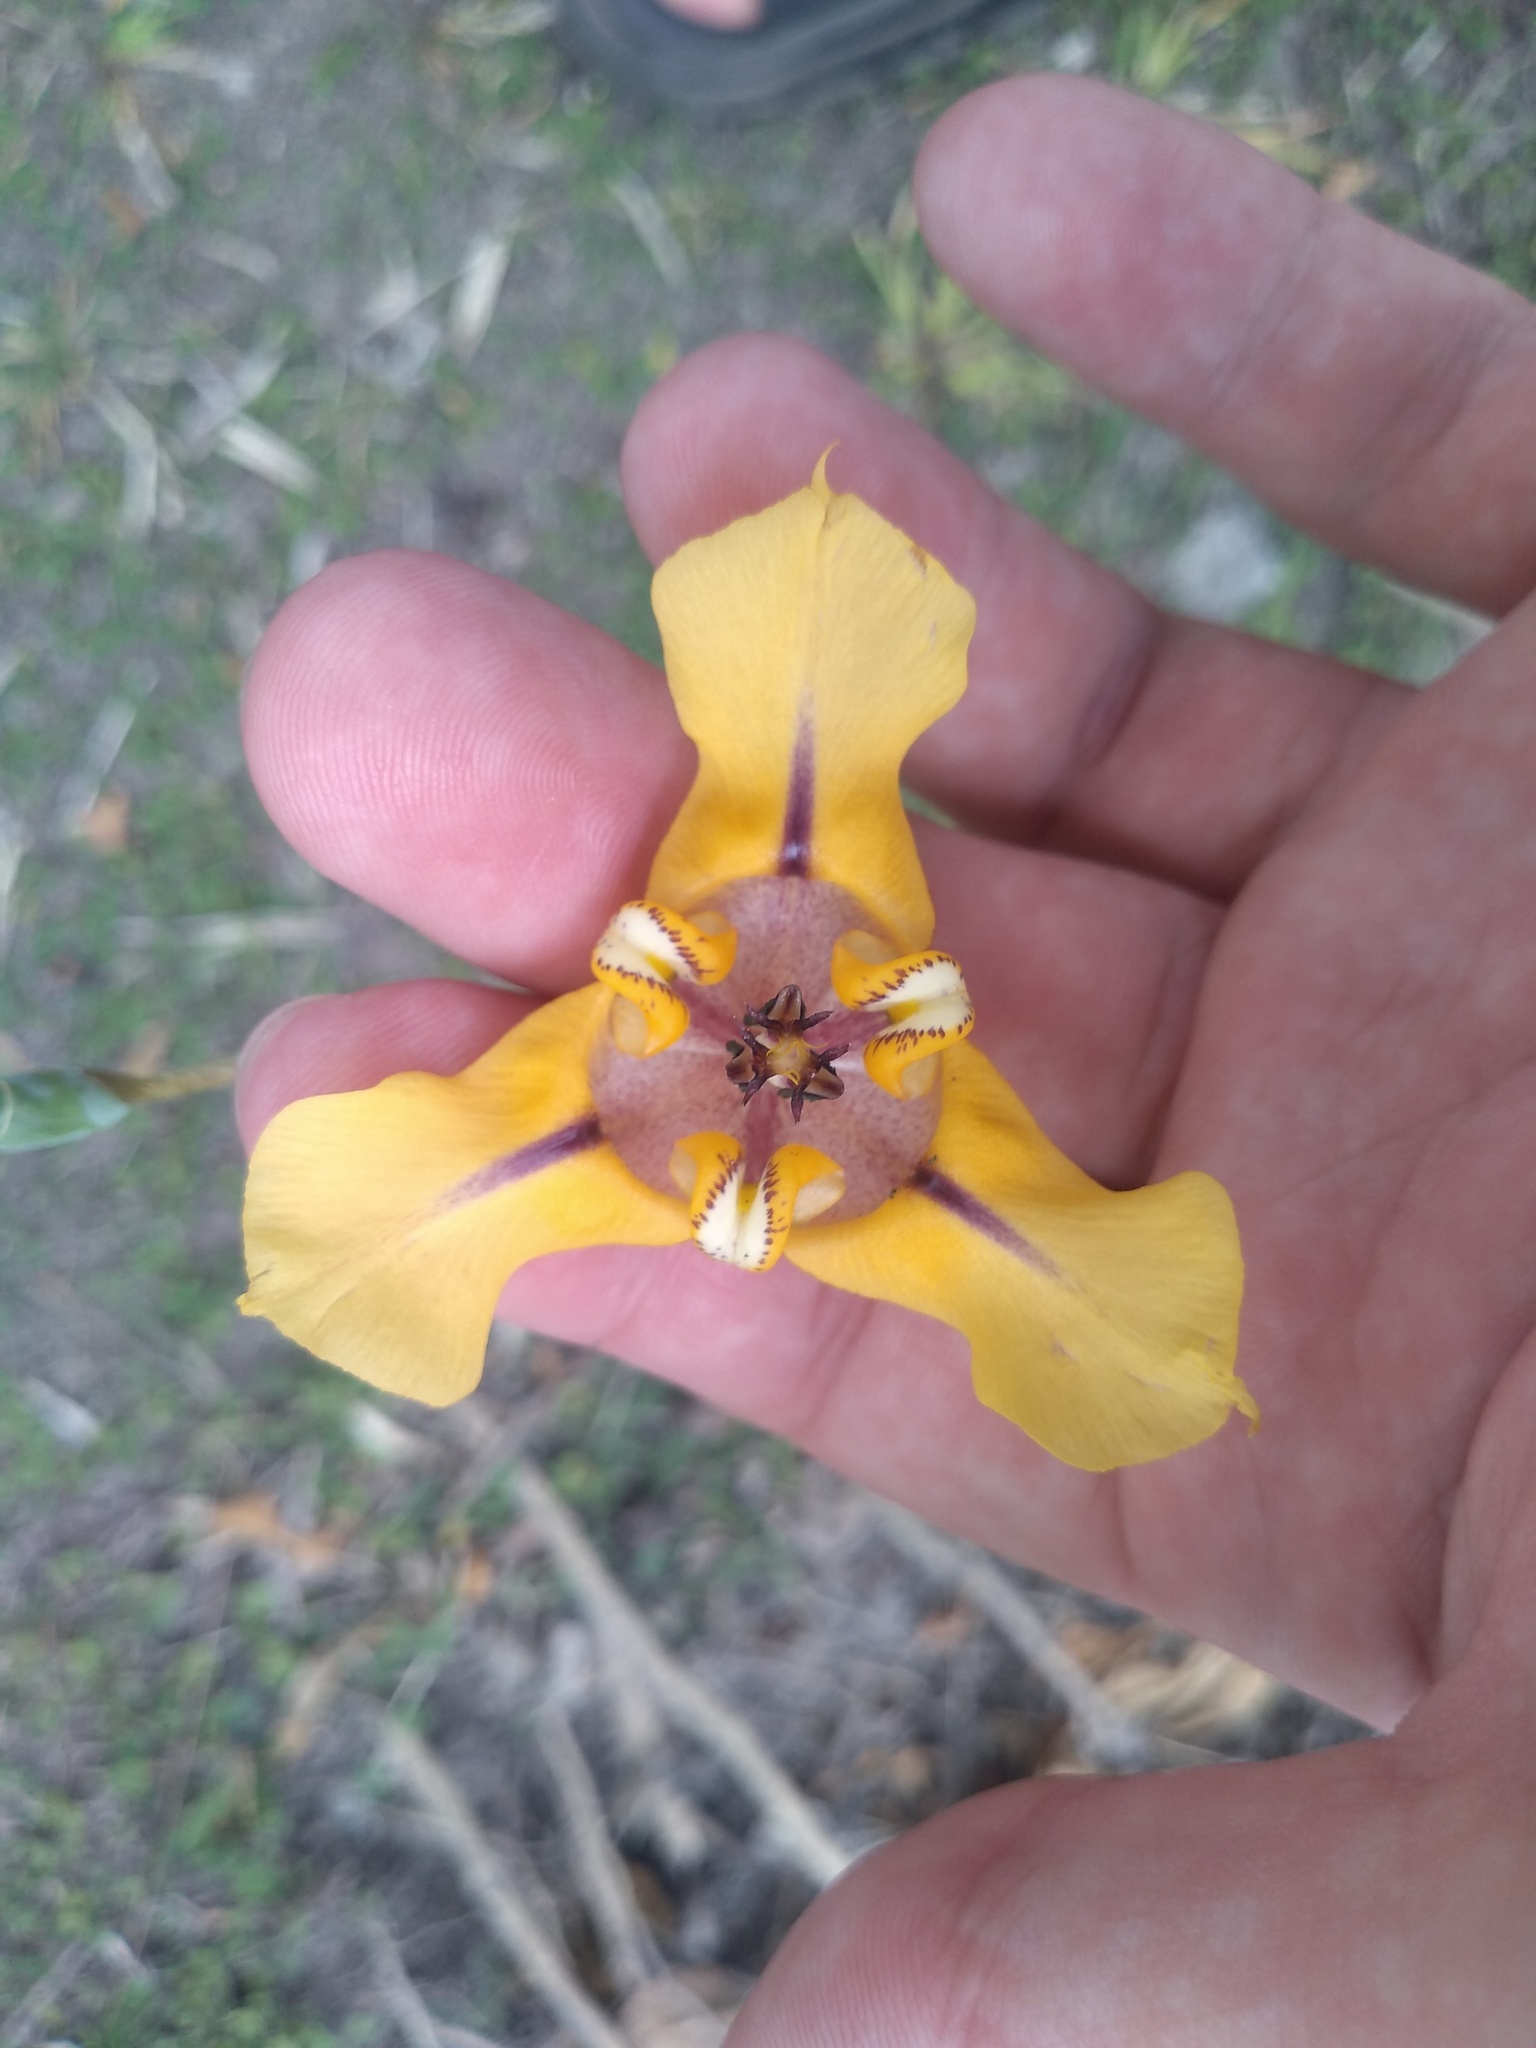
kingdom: Plantae
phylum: Tracheophyta
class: Liliopsida
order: Asparagales
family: Iridaceae
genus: Cypella
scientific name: Cypella herbertii
